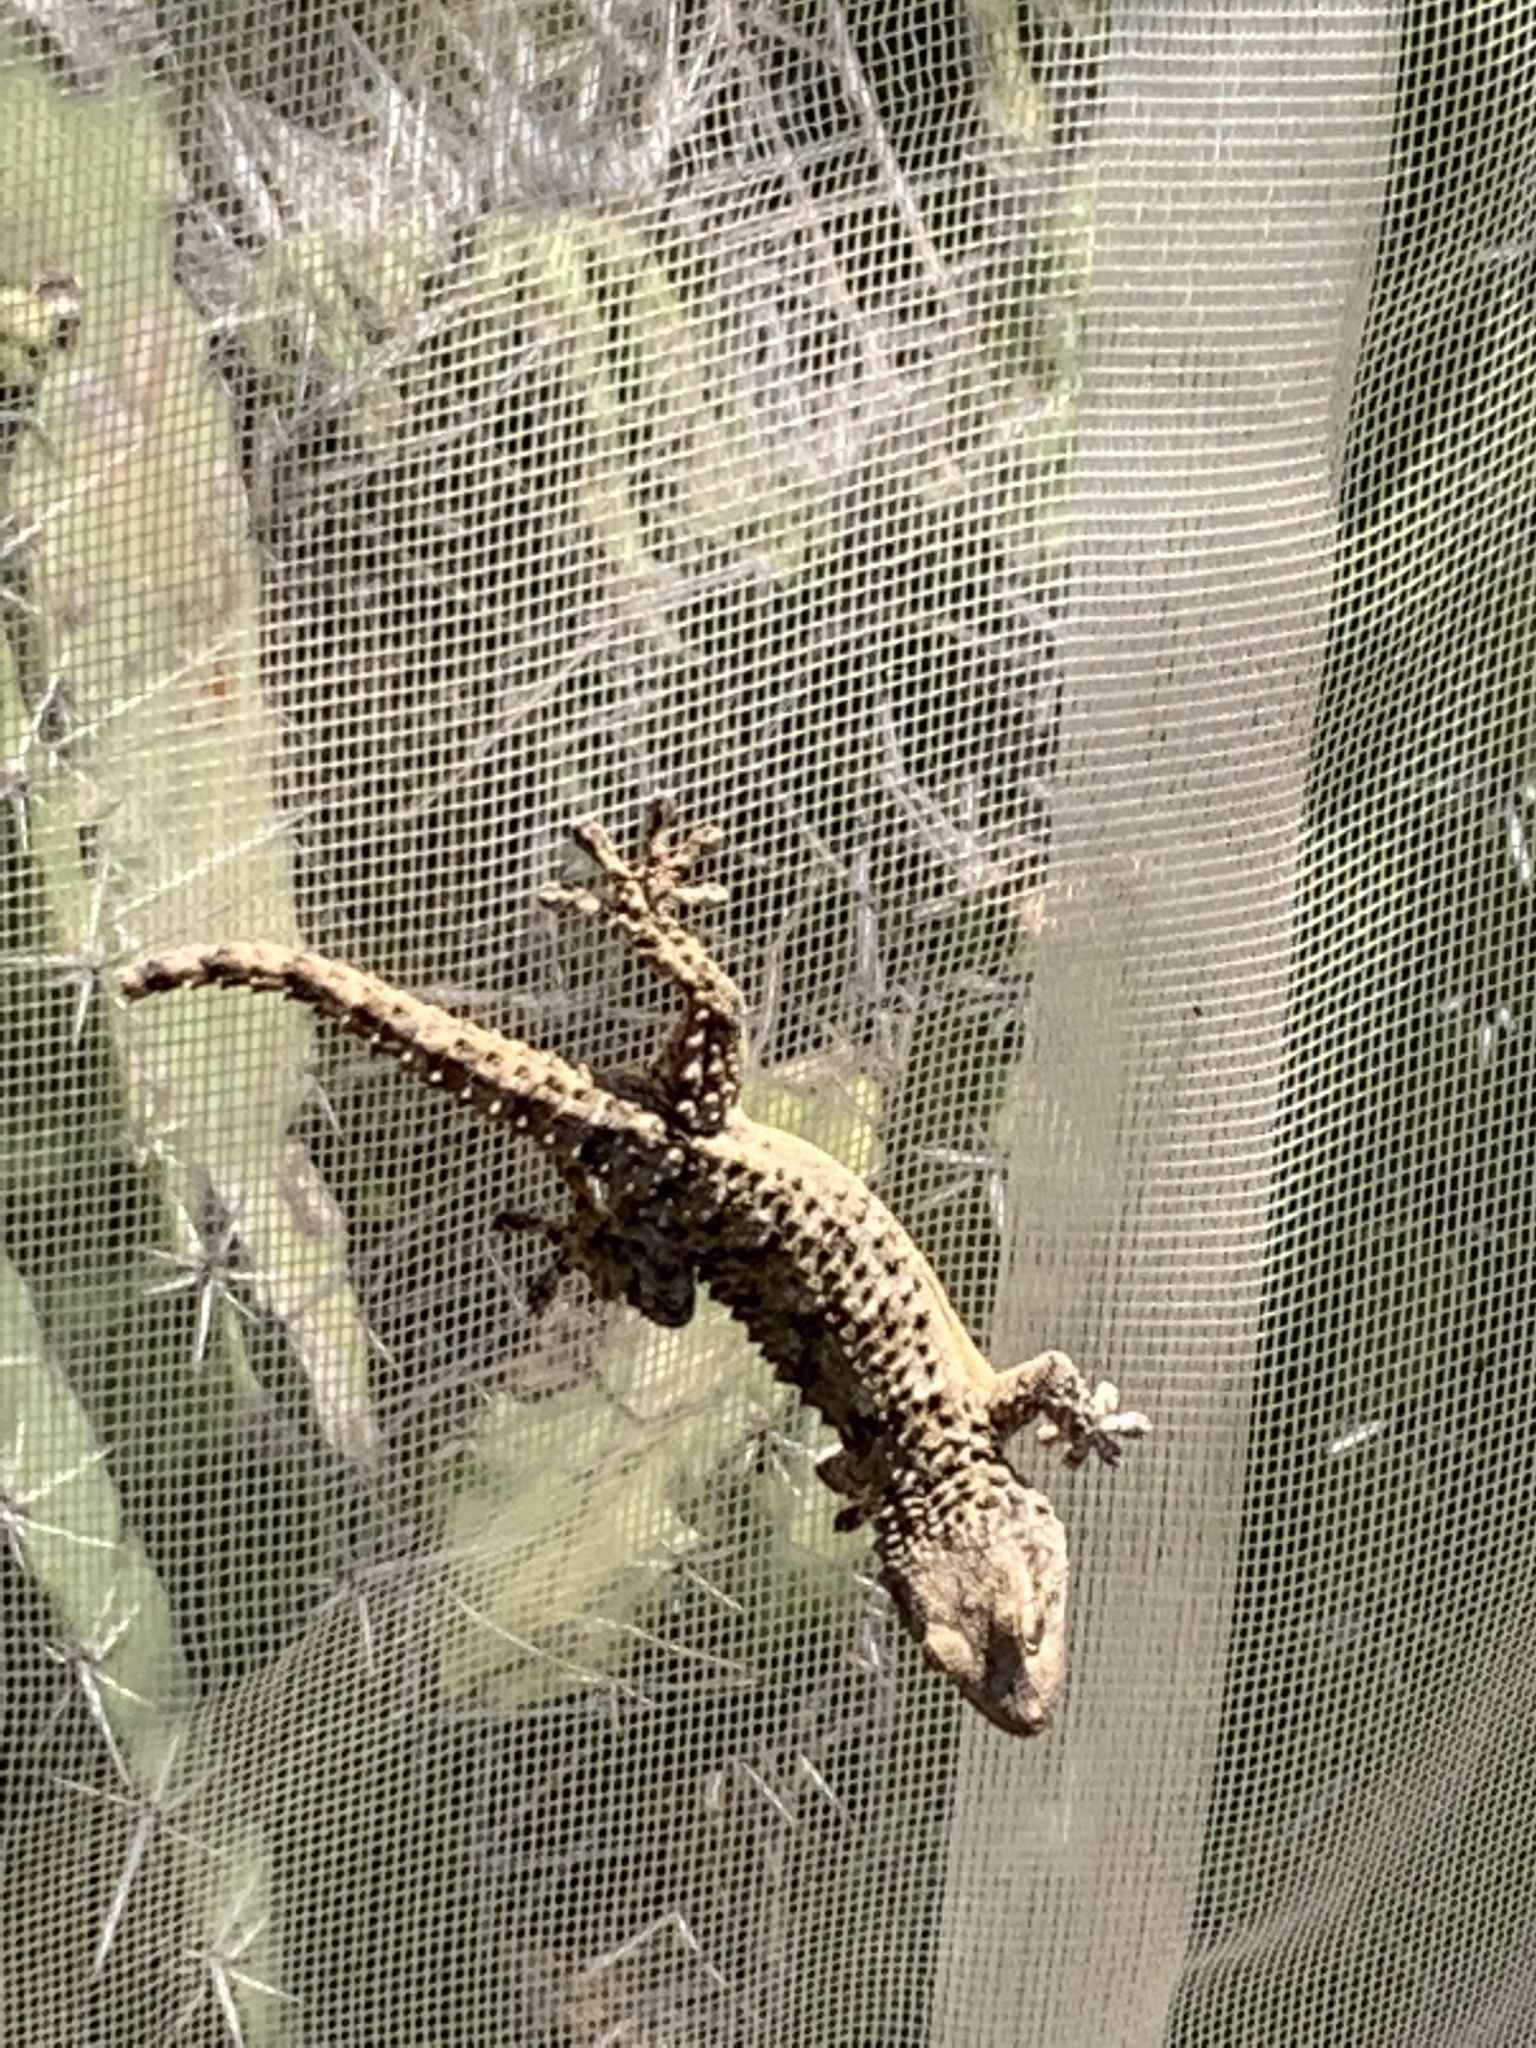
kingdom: Animalia
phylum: Chordata
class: Squamata
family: Phyllodactylidae
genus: Tarentola
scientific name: Tarentola mauritanica
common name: Moorish gecko
